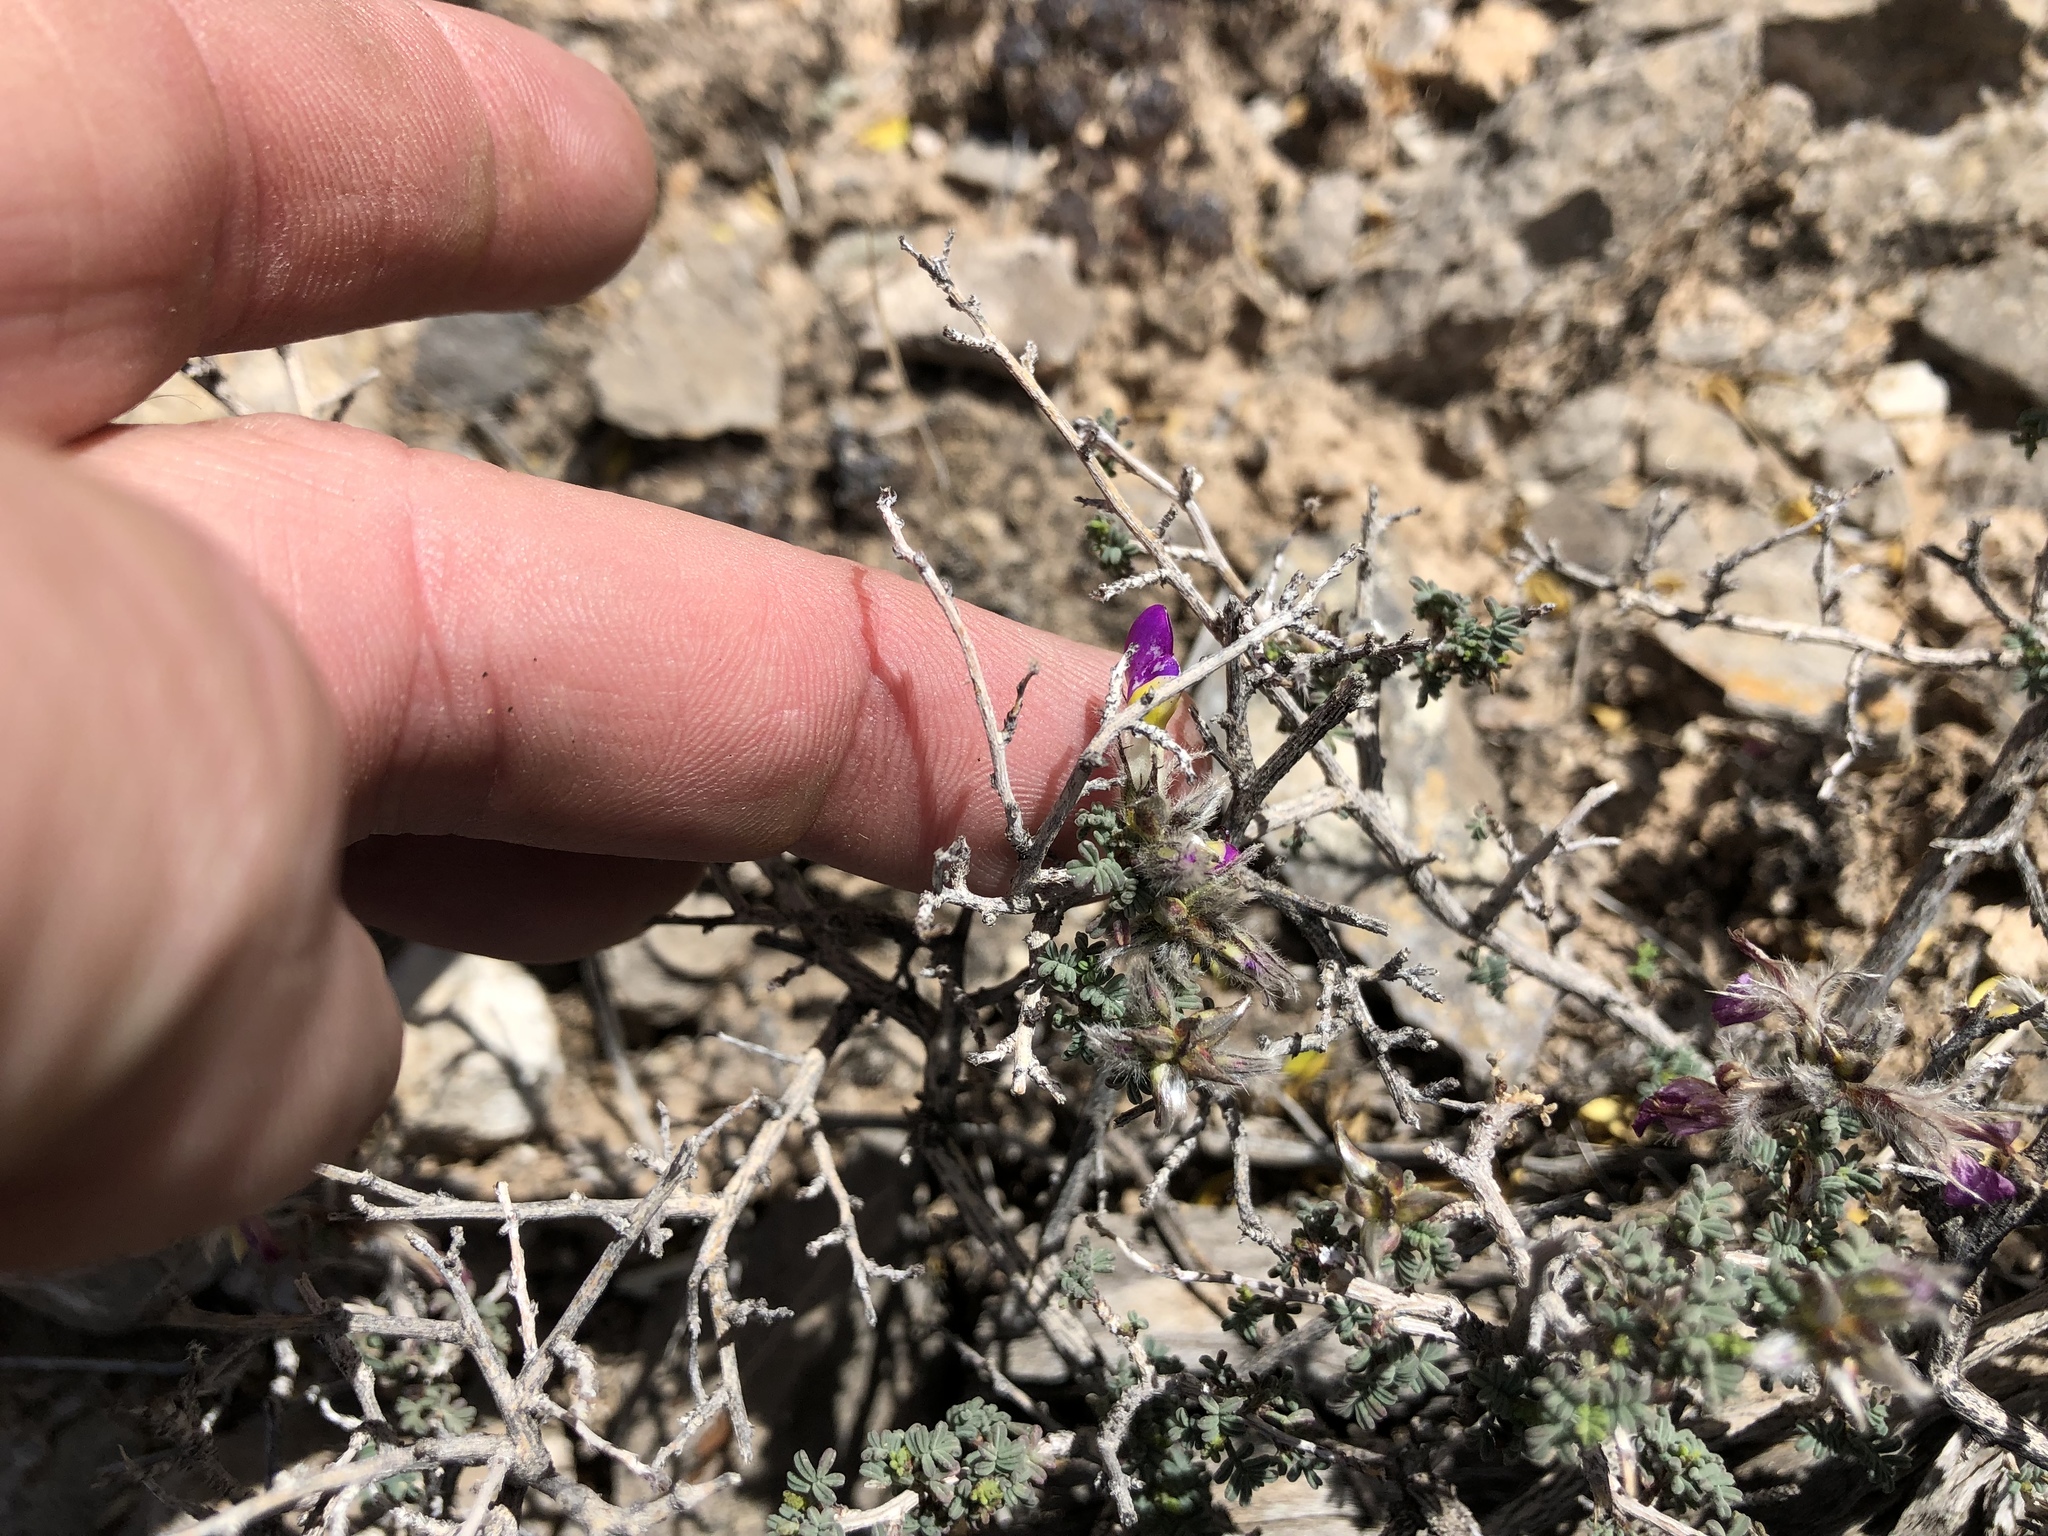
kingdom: Plantae
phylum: Tracheophyta
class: Magnoliopsida
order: Fabales
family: Fabaceae
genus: Dalea
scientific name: Dalea formosa
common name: Feather-plume dalea
